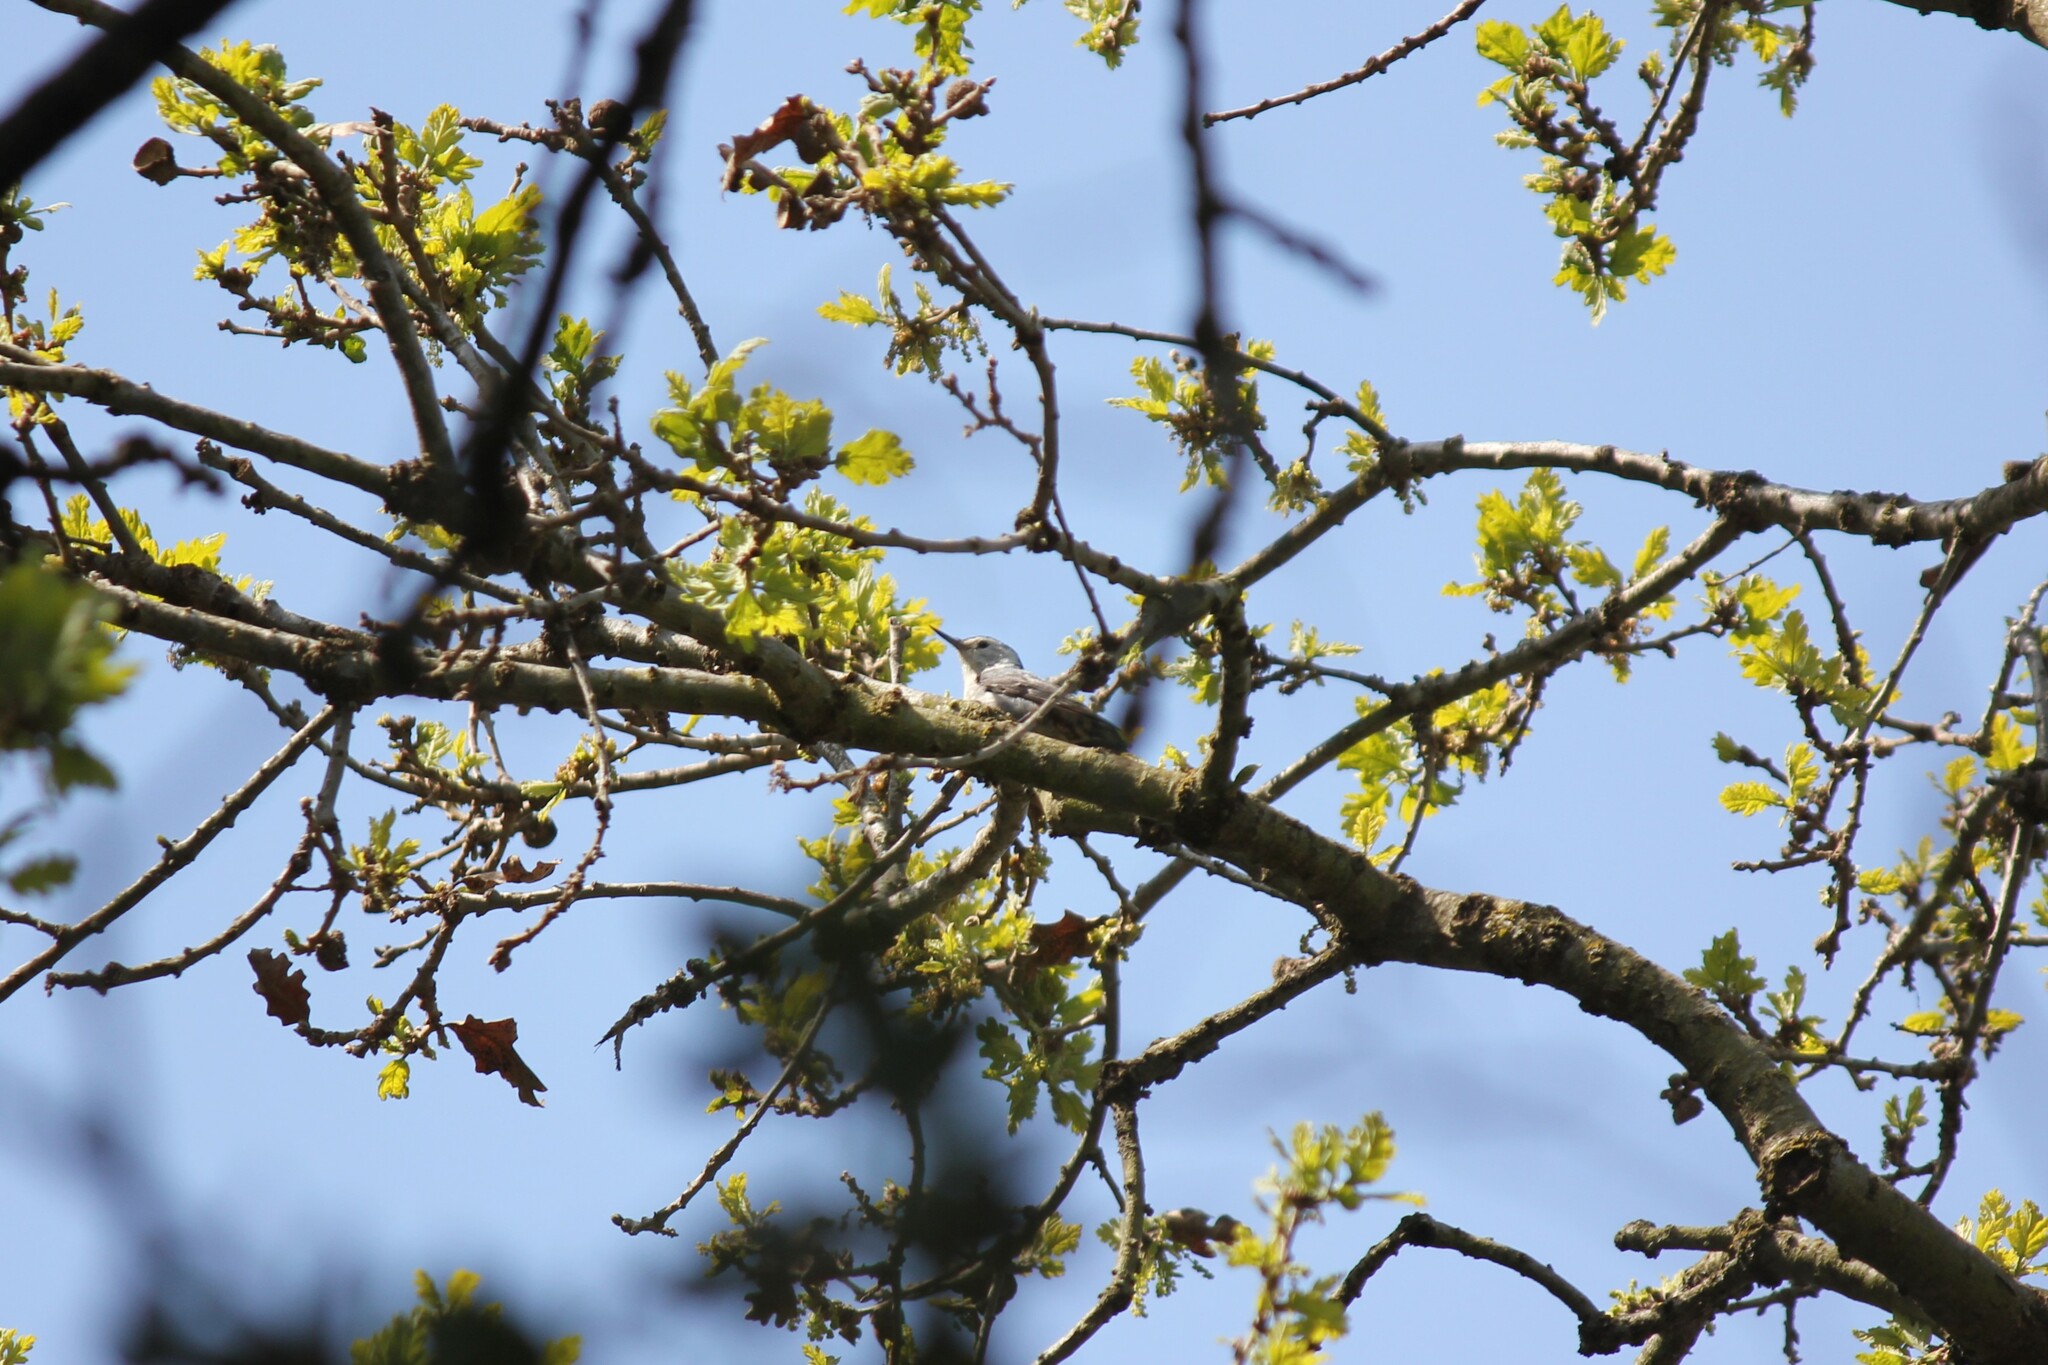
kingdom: Animalia
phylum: Chordata
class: Aves
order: Passeriformes
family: Sittidae
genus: Sitta
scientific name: Sitta carolinensis
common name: White-breasted nuthatch
